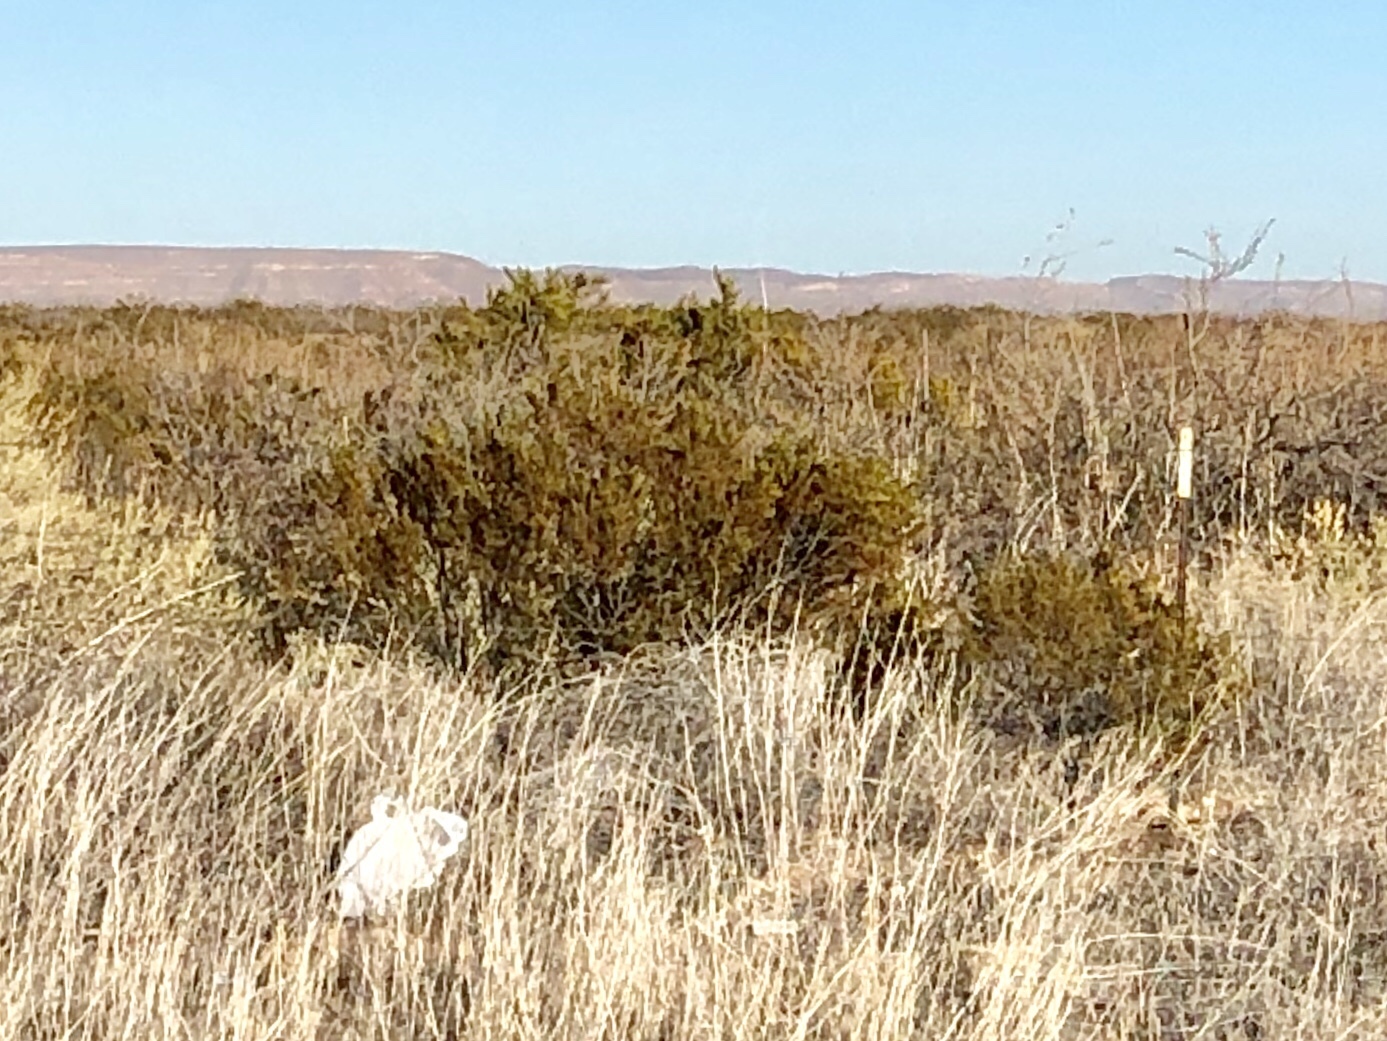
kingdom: Plantae
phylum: Tracheophyta
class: Magnoliopsida
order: Zygophyllales
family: Zygophyllaceae
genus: Larrea
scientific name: Larrea tridentata
